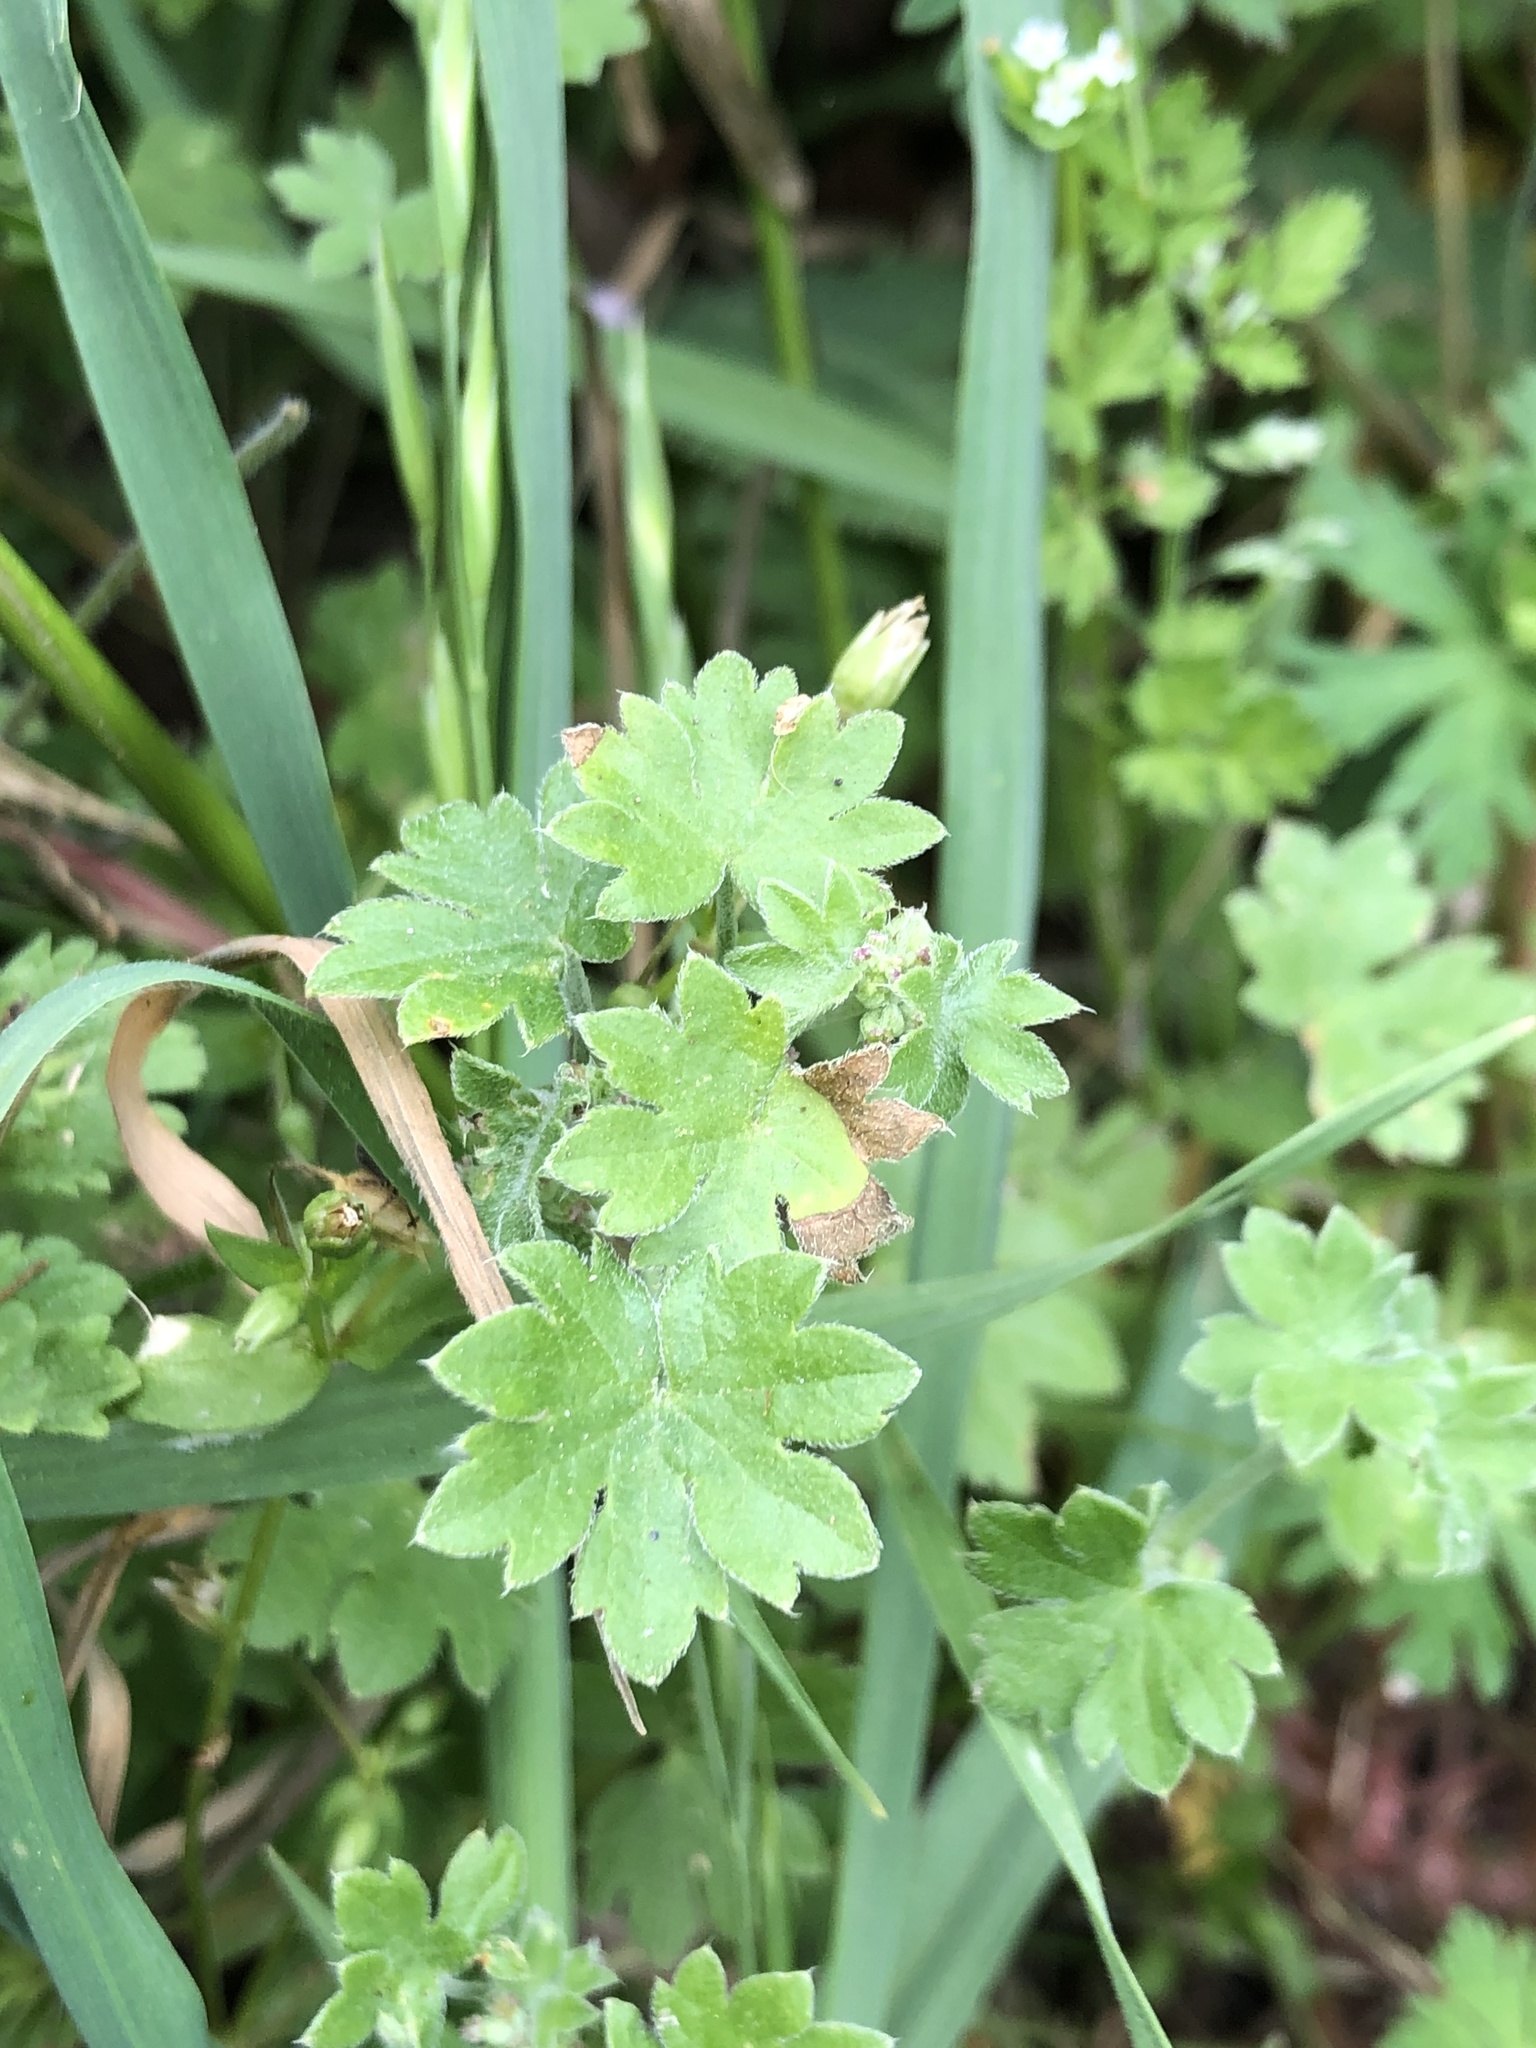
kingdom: Plantae
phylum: Tracheophyta
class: Magnoliopsida
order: Apiales
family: Apiaceae
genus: Bowlesia
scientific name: Bowlesia incana
